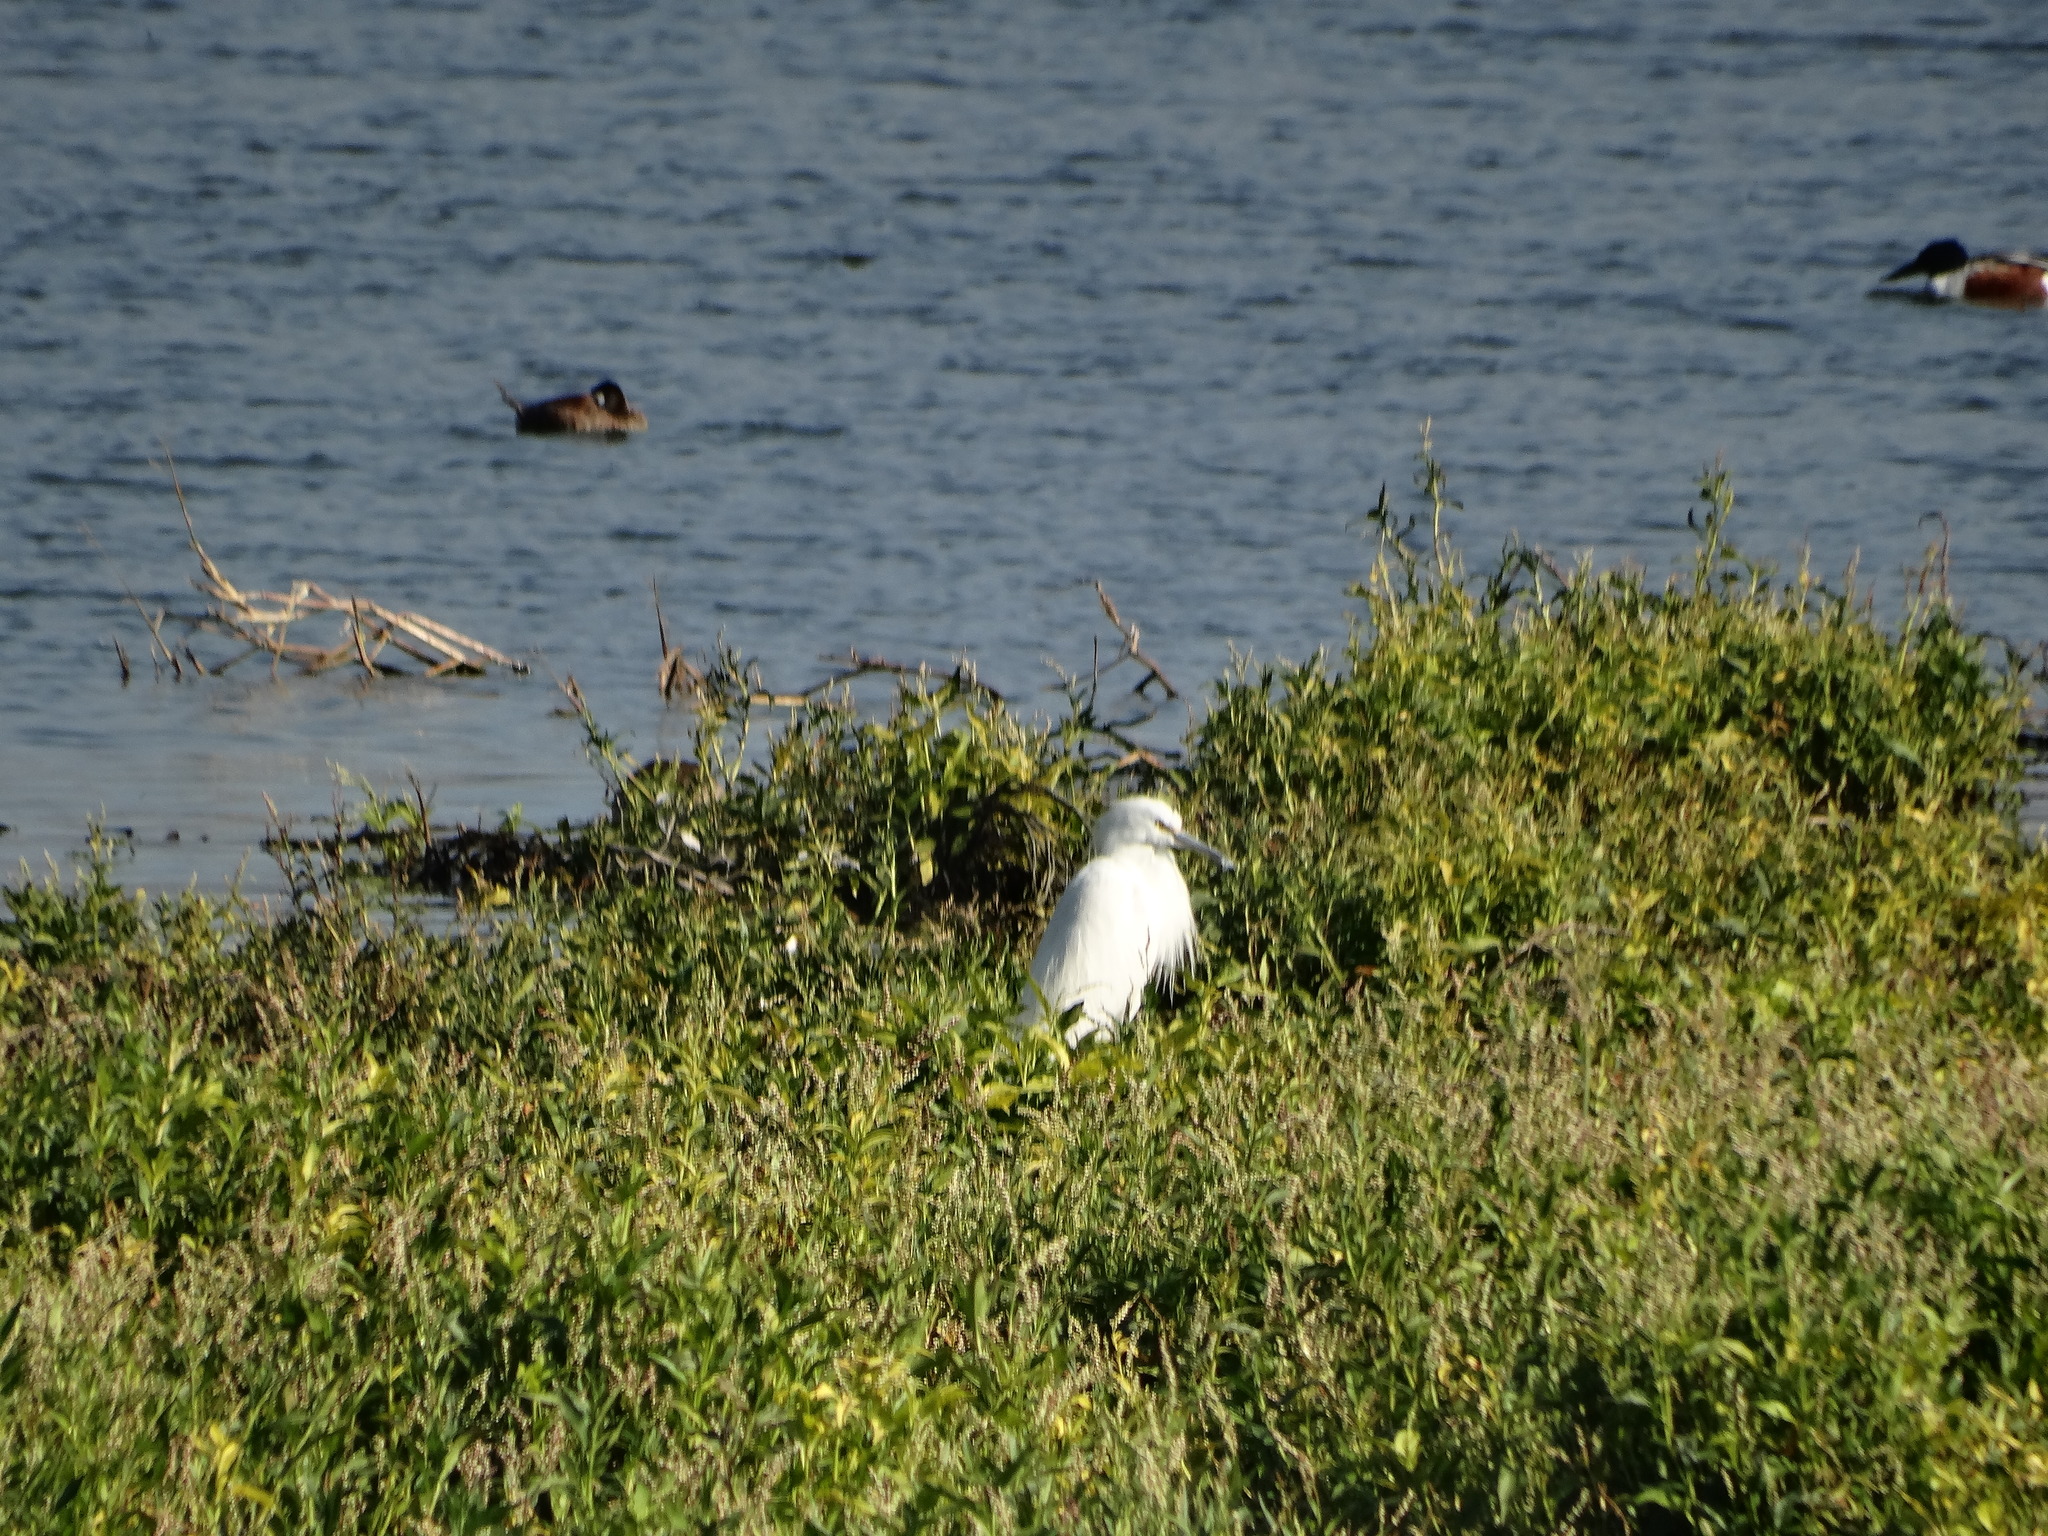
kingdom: Animalia
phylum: Chordata
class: Aves
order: Pelecaniformes
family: Ardeidae
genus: Egretta
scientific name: Egretta thula
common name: Snowy egret
